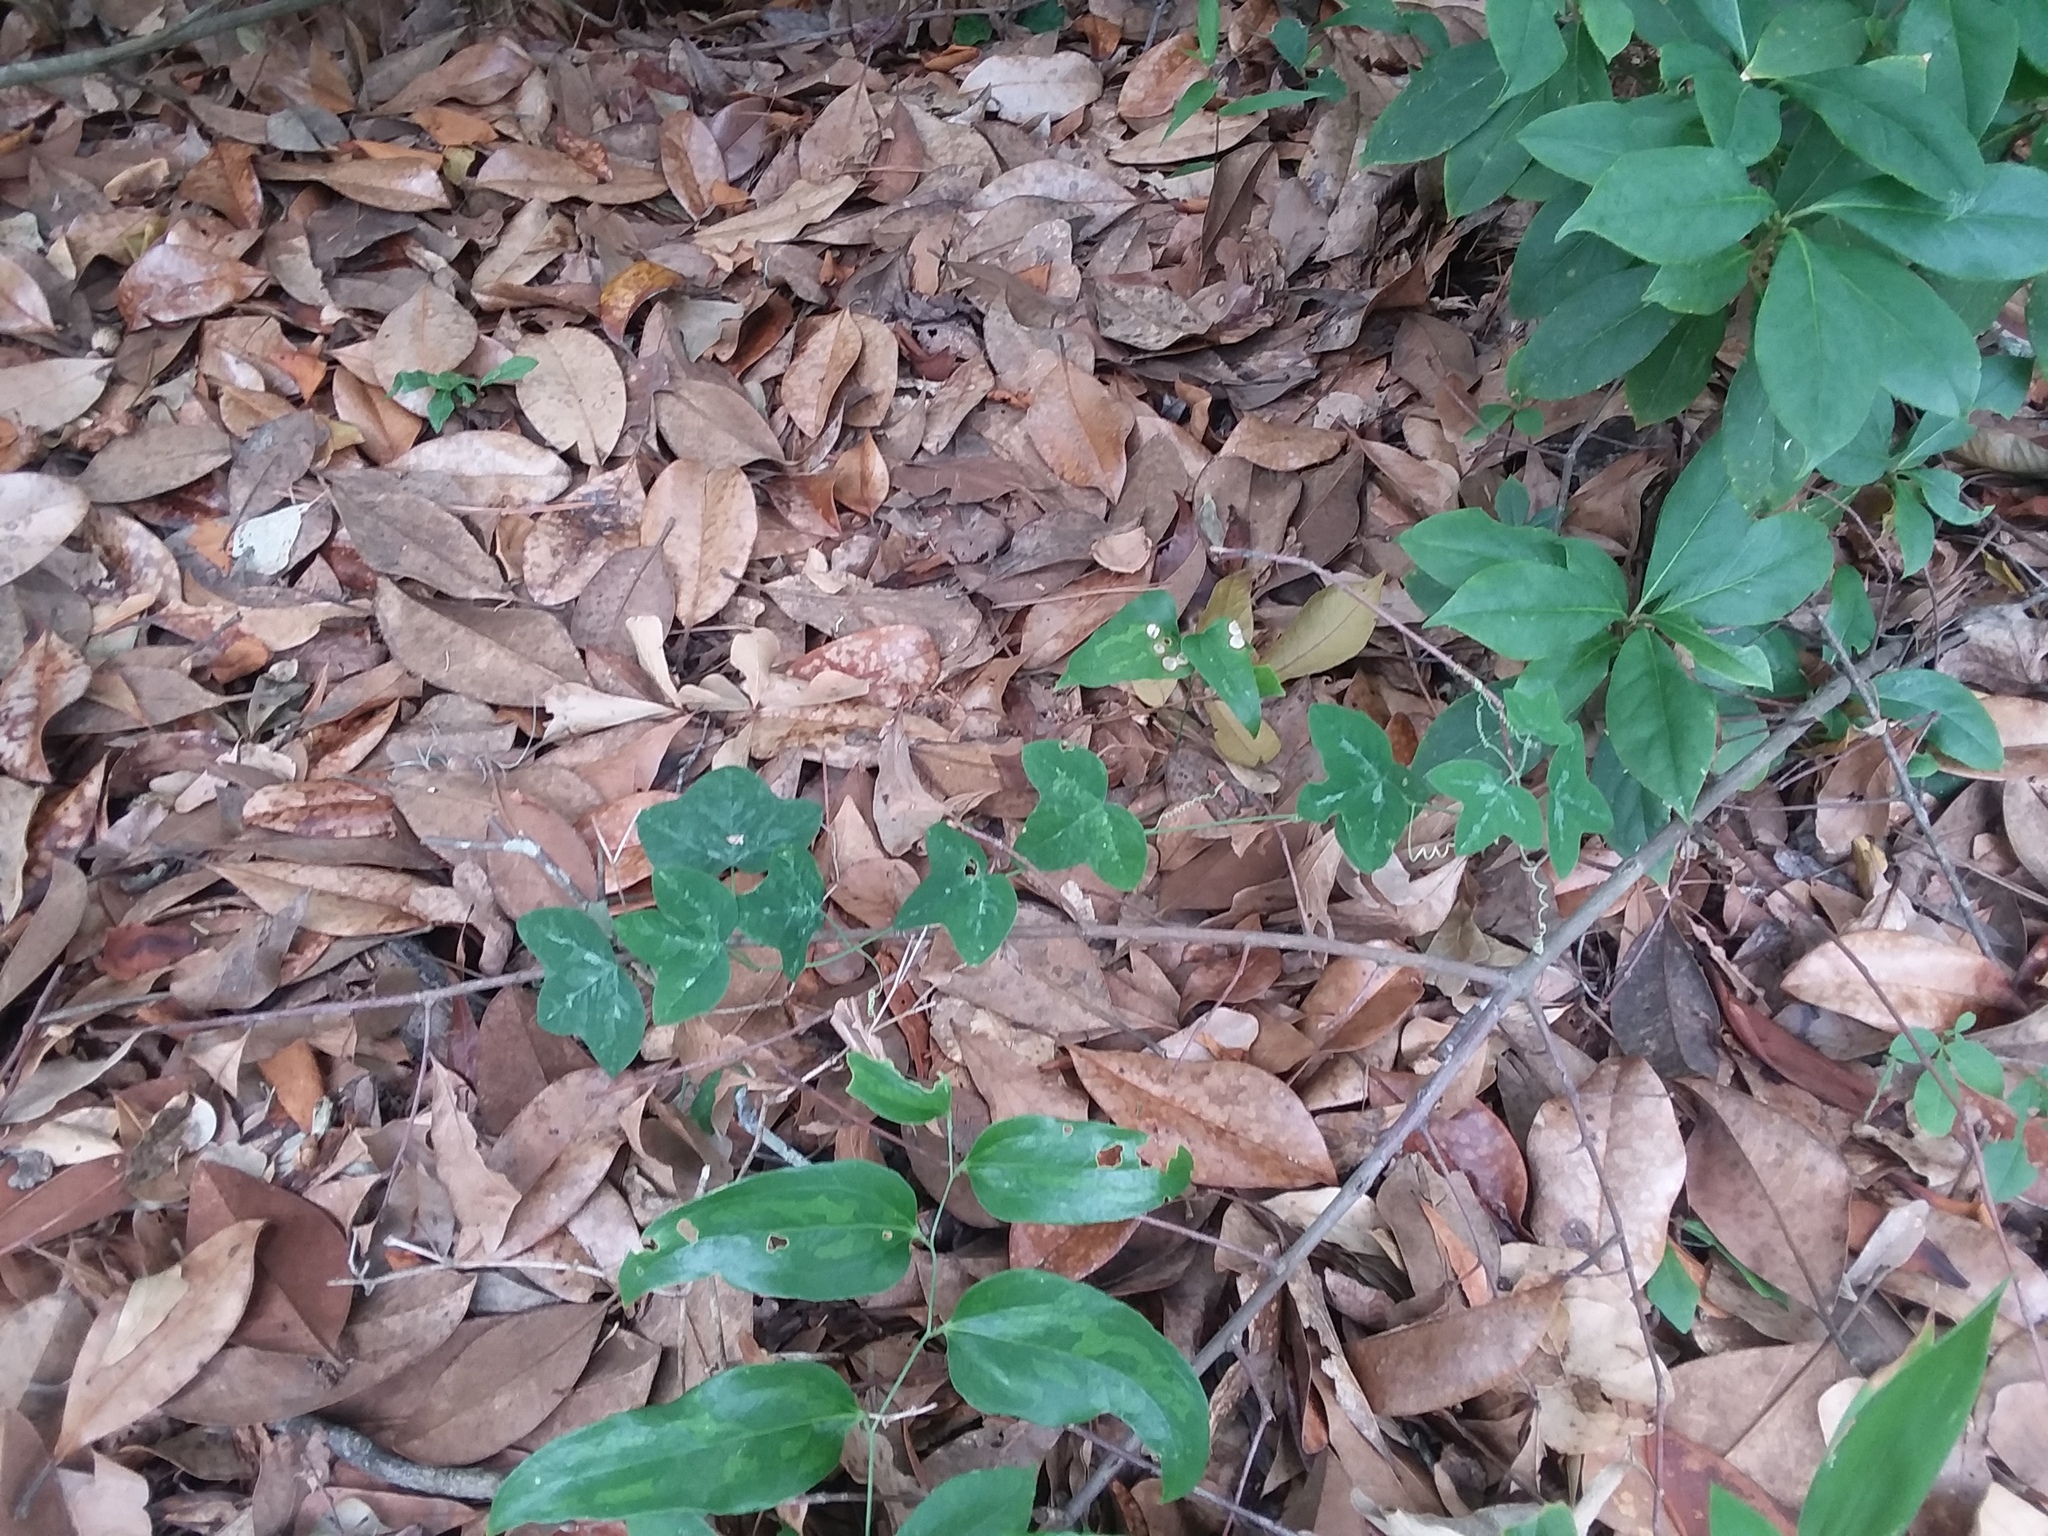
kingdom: Plantae
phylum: Tracheophyta
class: Magnoliopsida
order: Malpighiales
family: Passifloraceae
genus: Passiflora
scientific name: Passiflora lutea
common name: Yellow passionflower
